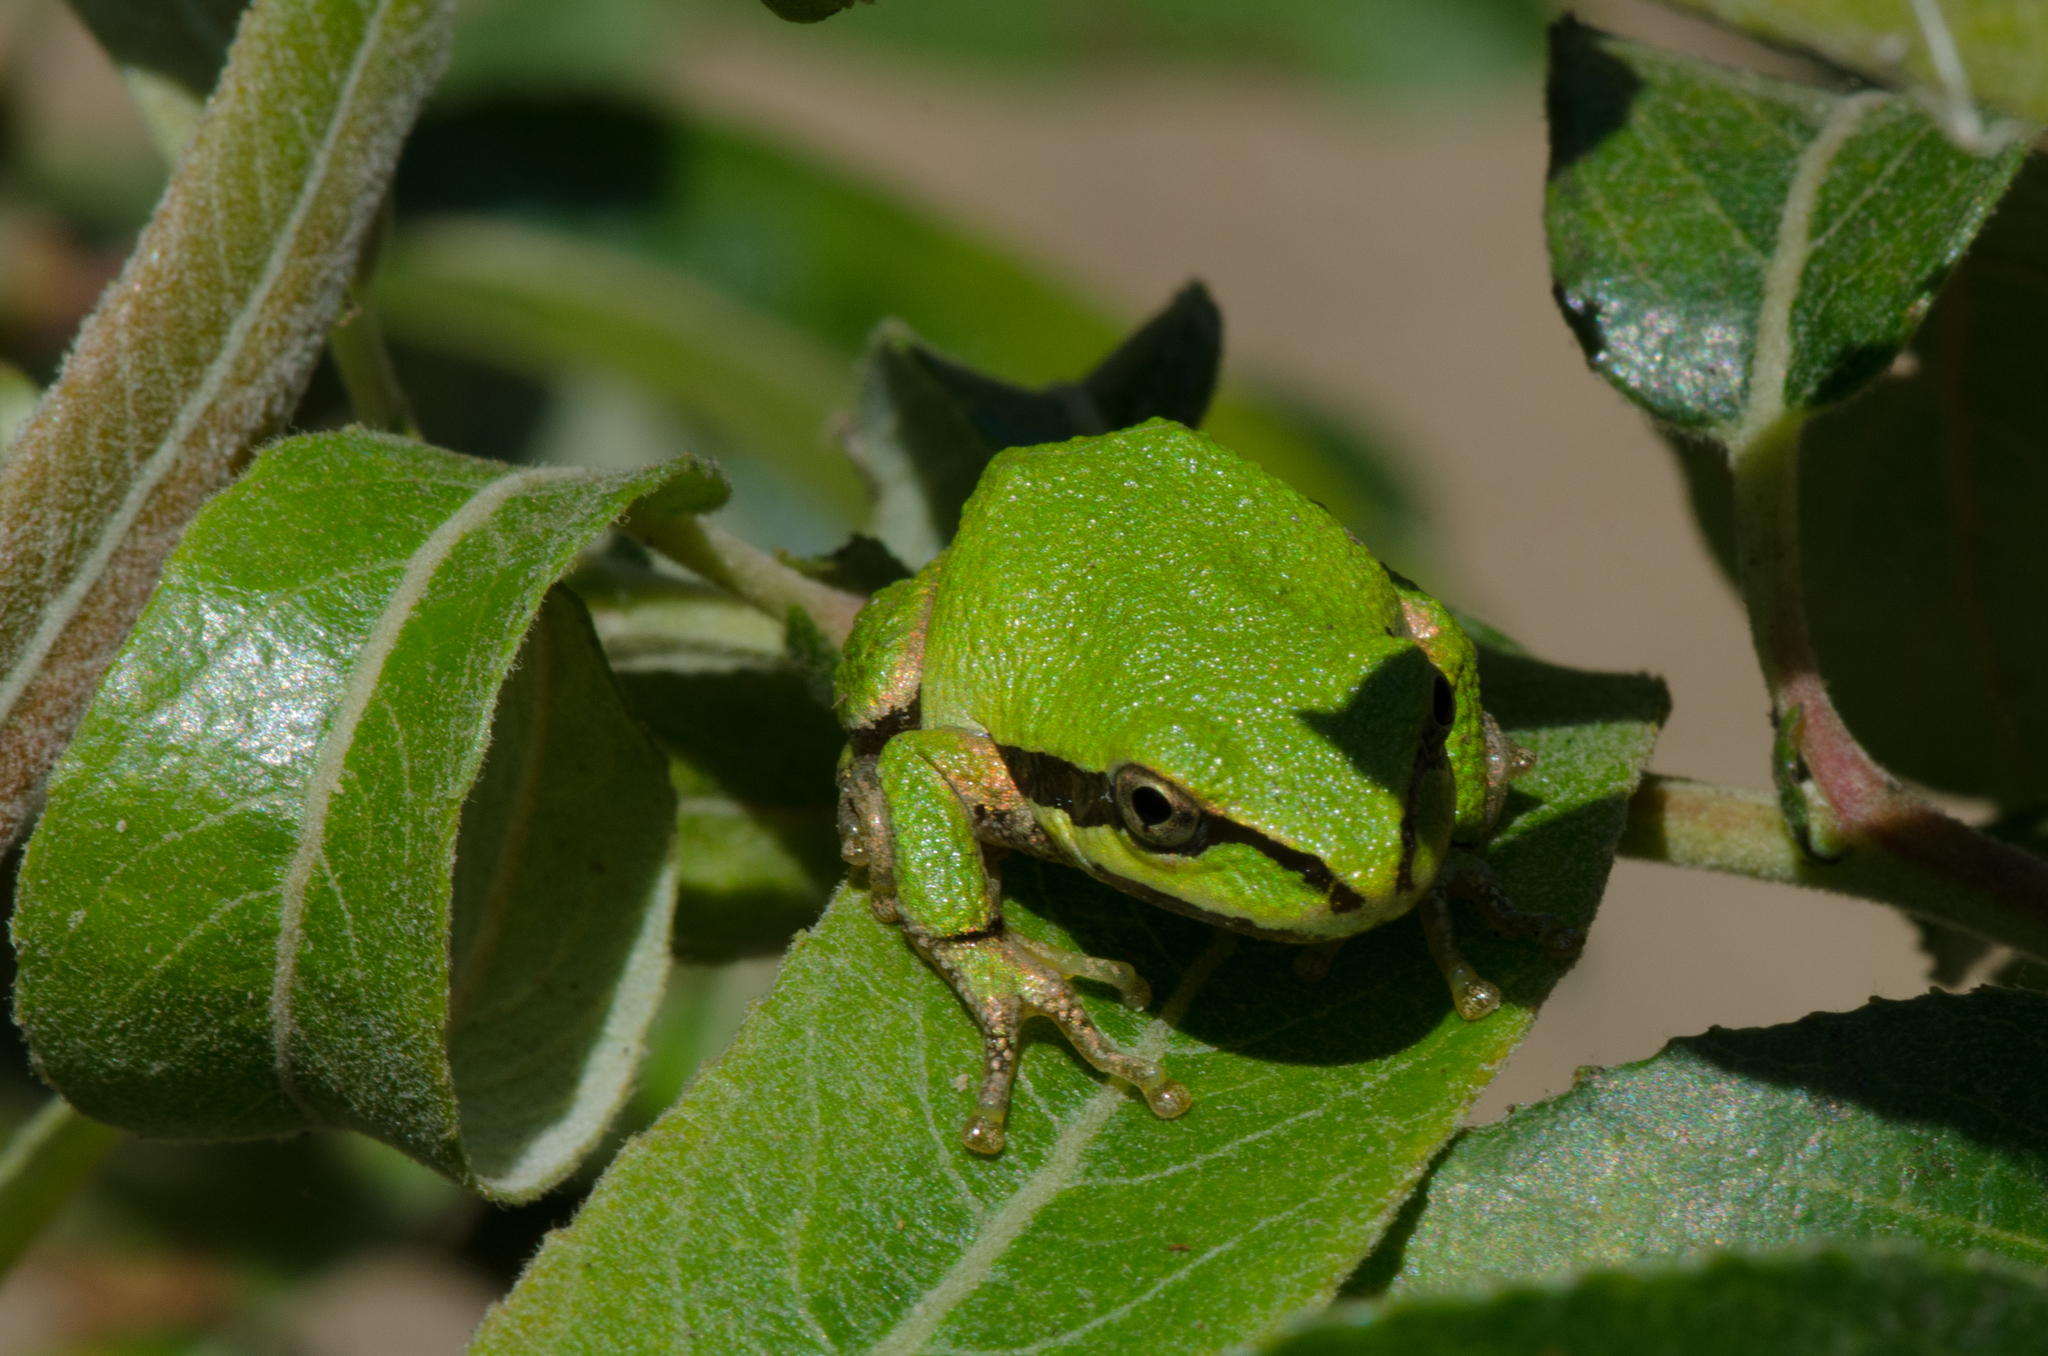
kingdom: Animalia
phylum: Chordata
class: Amphibia
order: Anura
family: Hylidae
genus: Pseudacris
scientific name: Pseudacris regilla
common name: Pacific chorus frog
